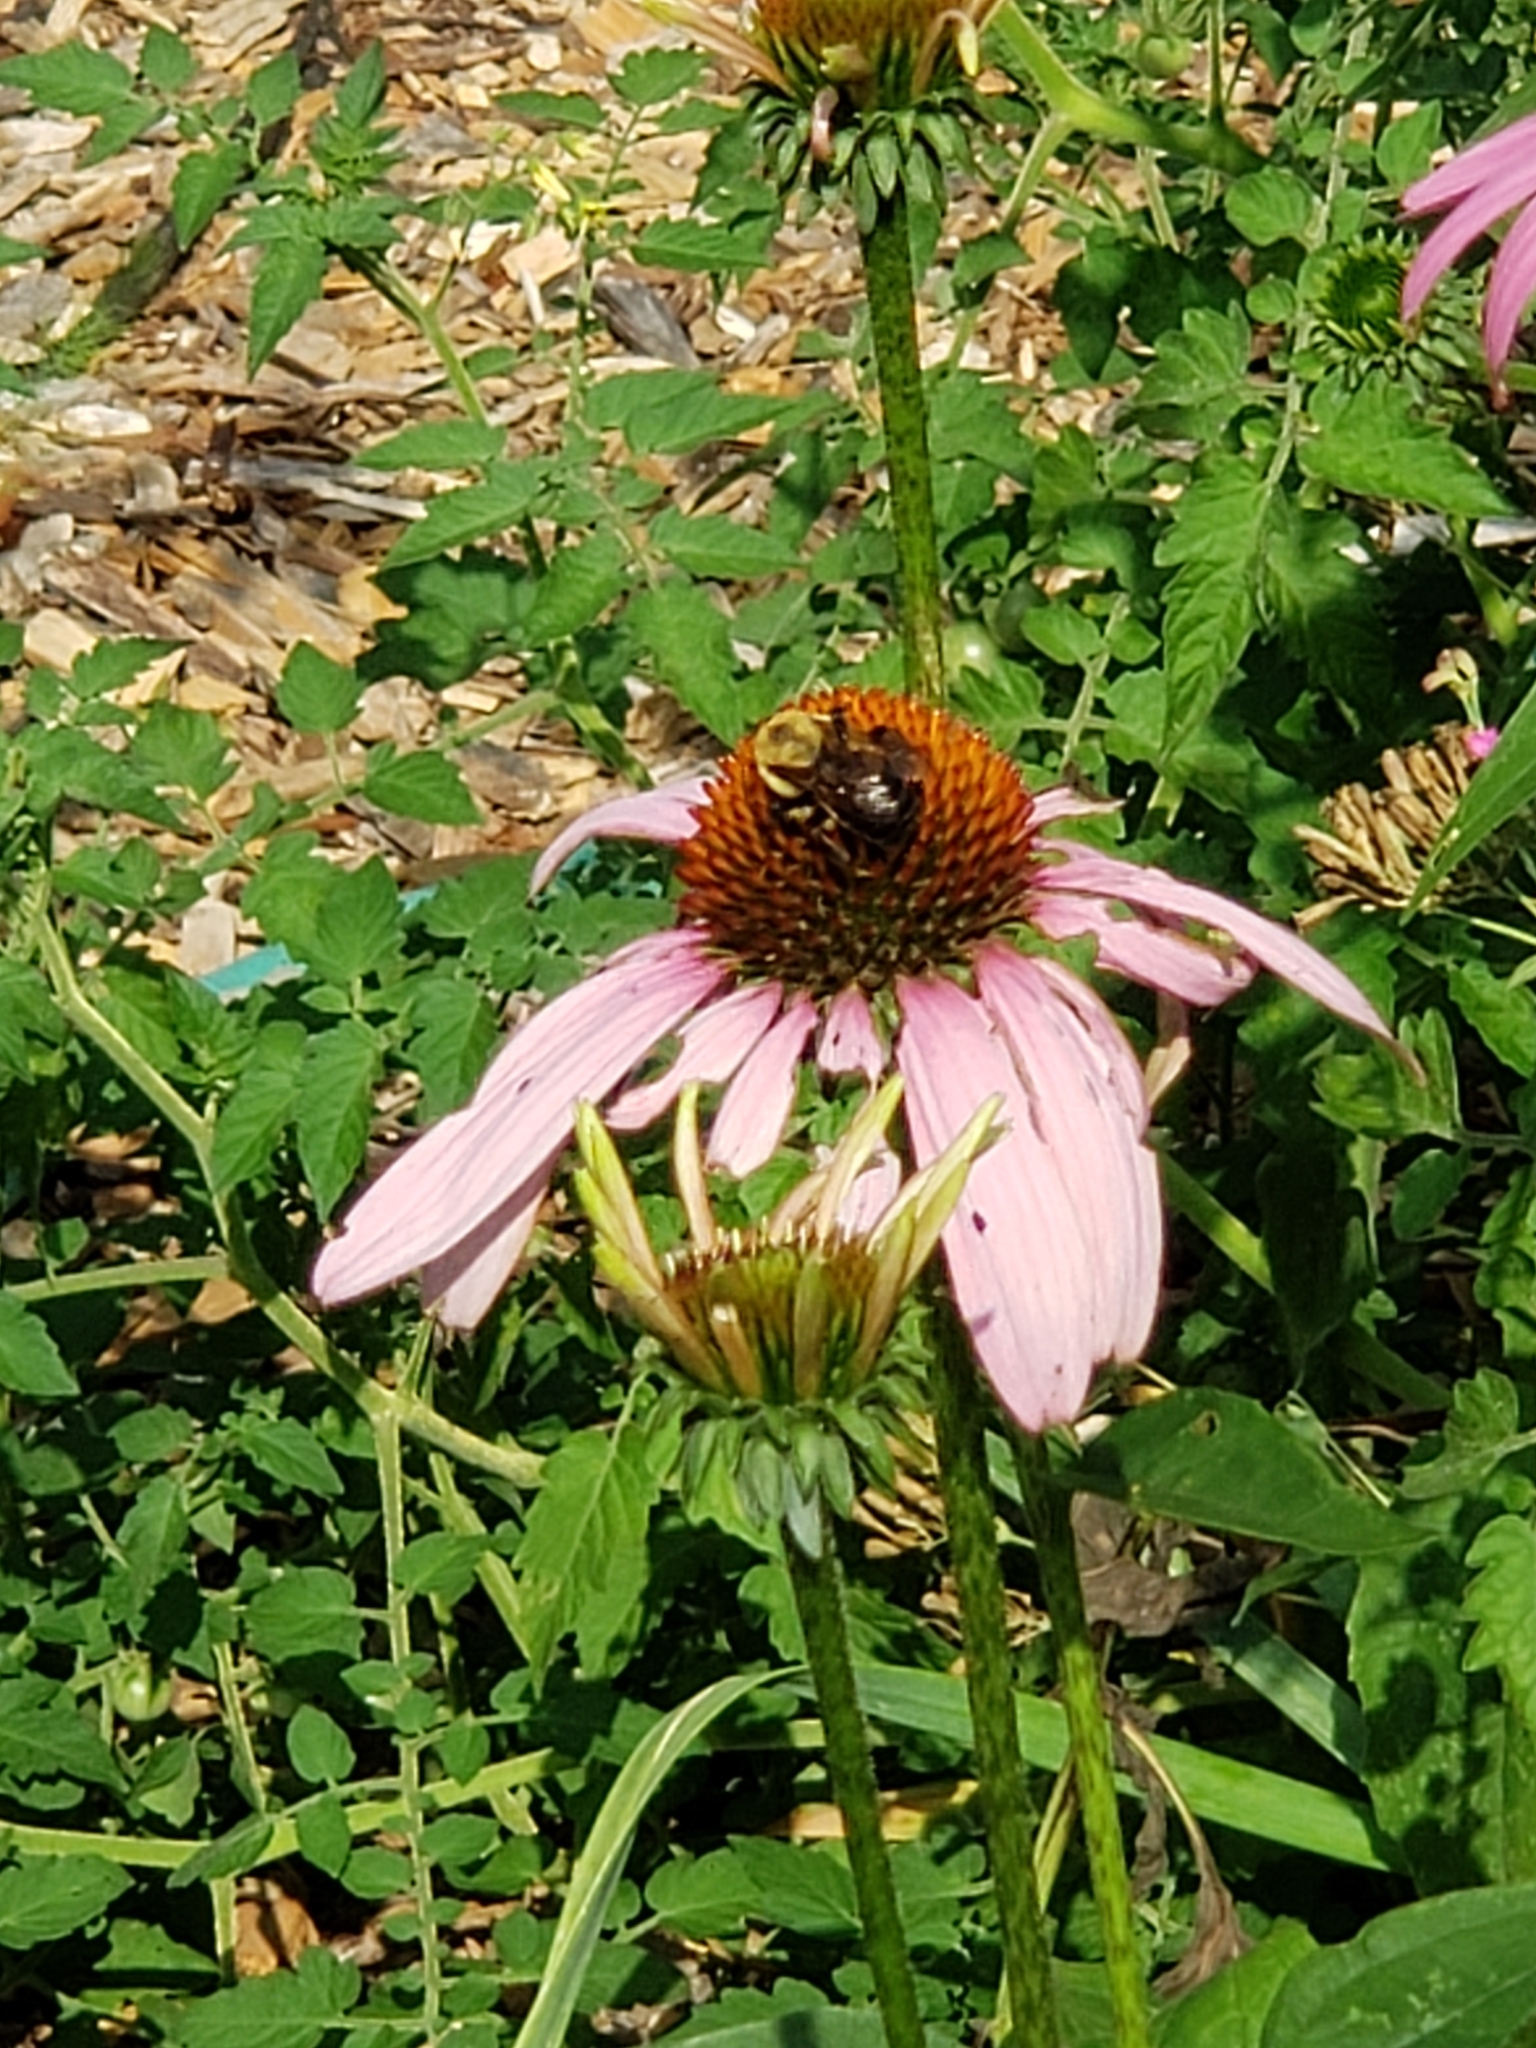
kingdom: Animalia
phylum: Arthropoda
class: Insecta
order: Hymenoptera
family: Apidae
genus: Bombus
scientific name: Bombus griseocollis
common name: Brown-belted bumble bee
